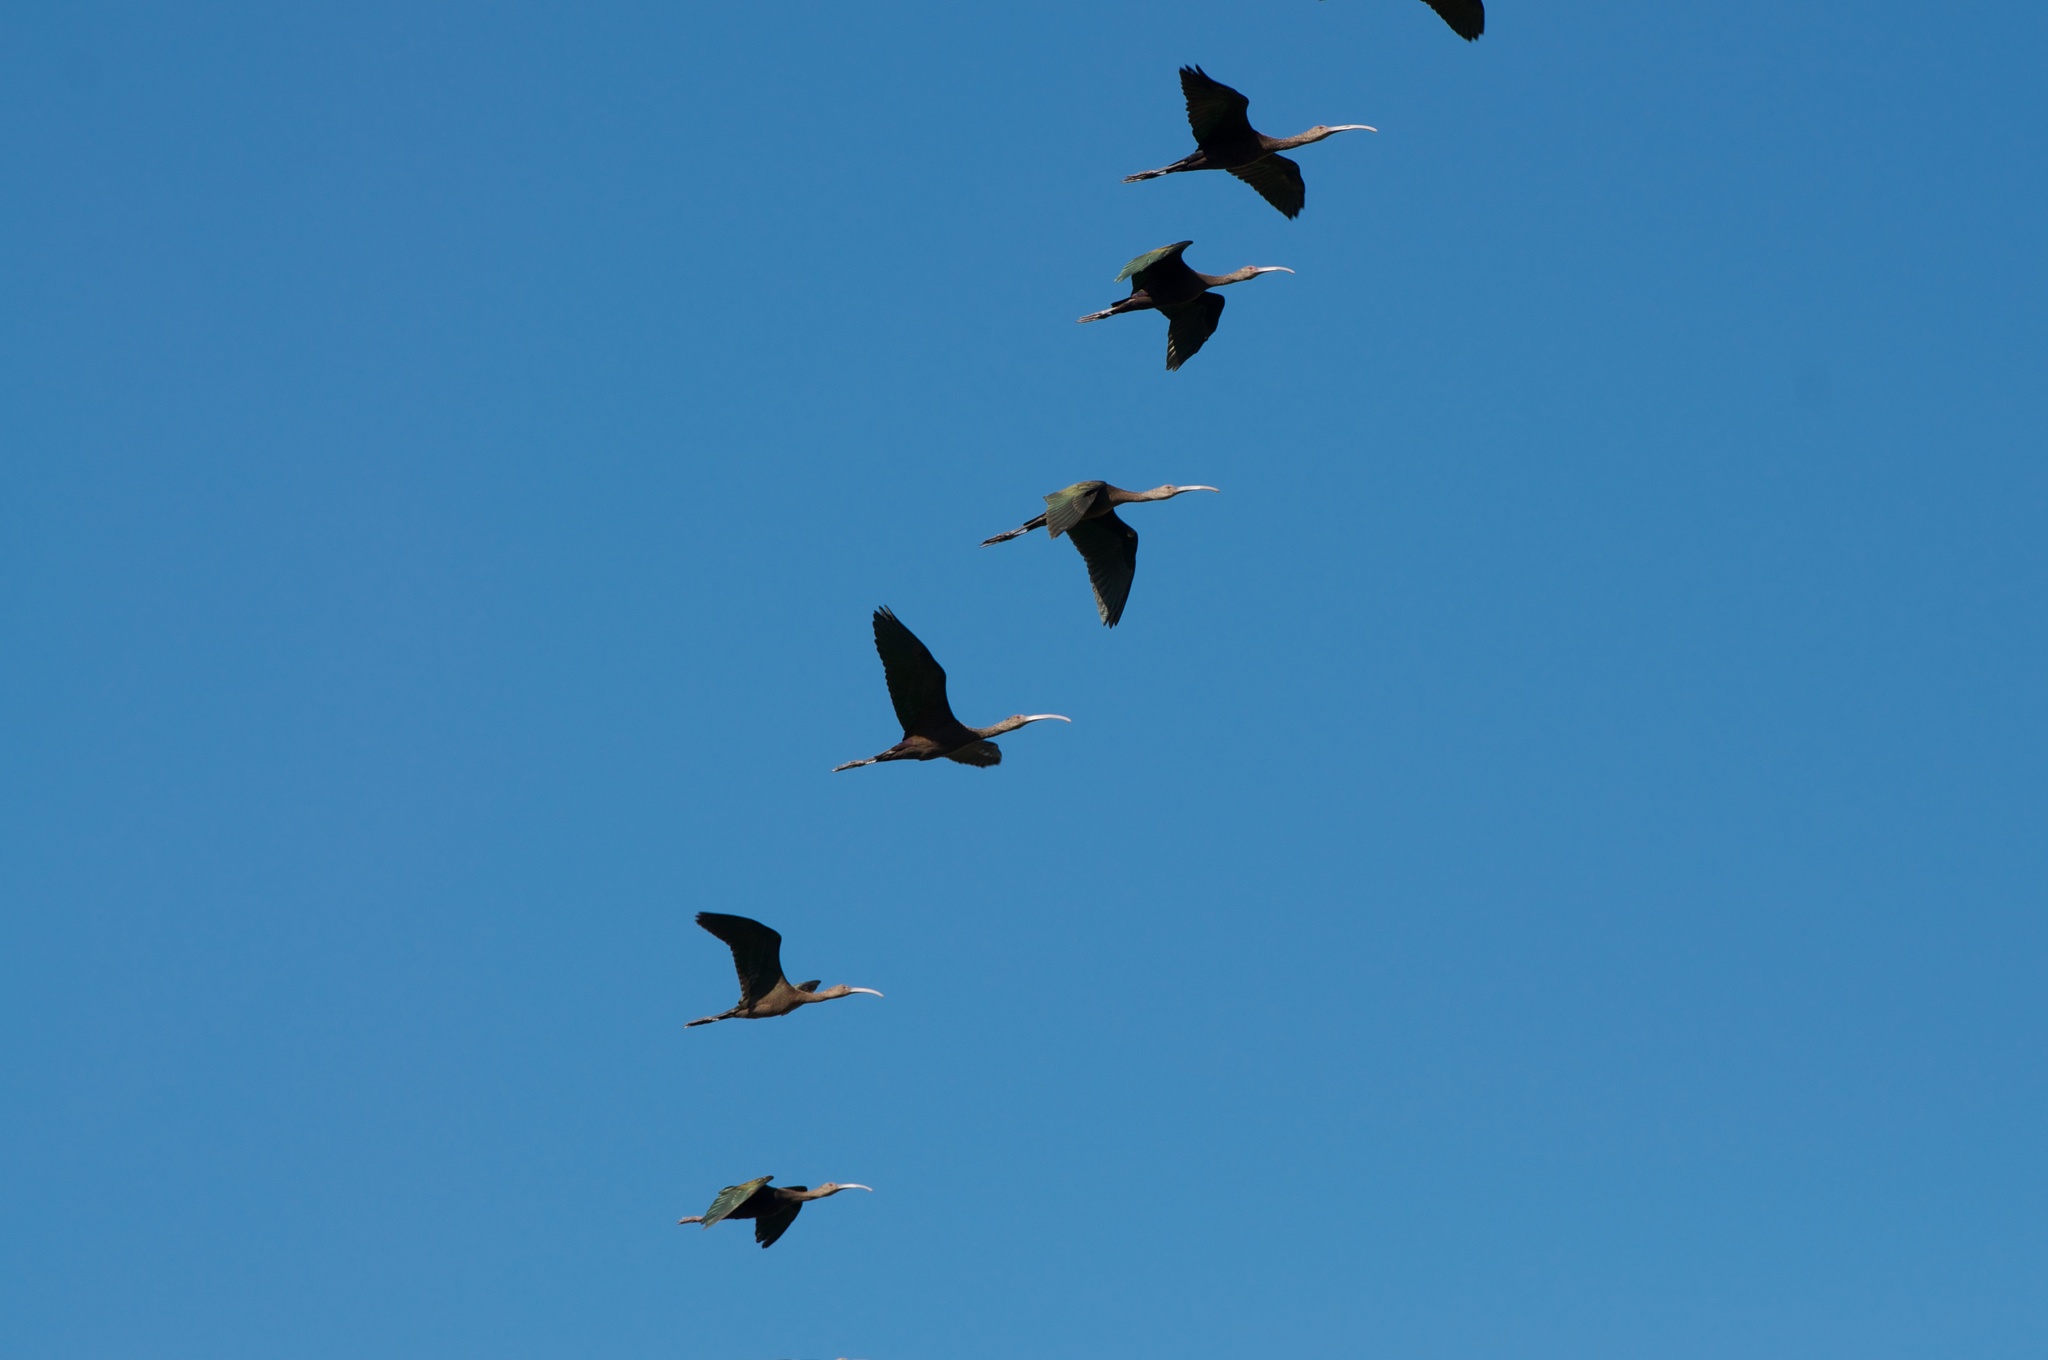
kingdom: Animalia
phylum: Chordata
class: Aves
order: Pelecaniformes
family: Threskiornithidae
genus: Plegadis
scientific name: Plegadis chihi
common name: White-faced ibis
